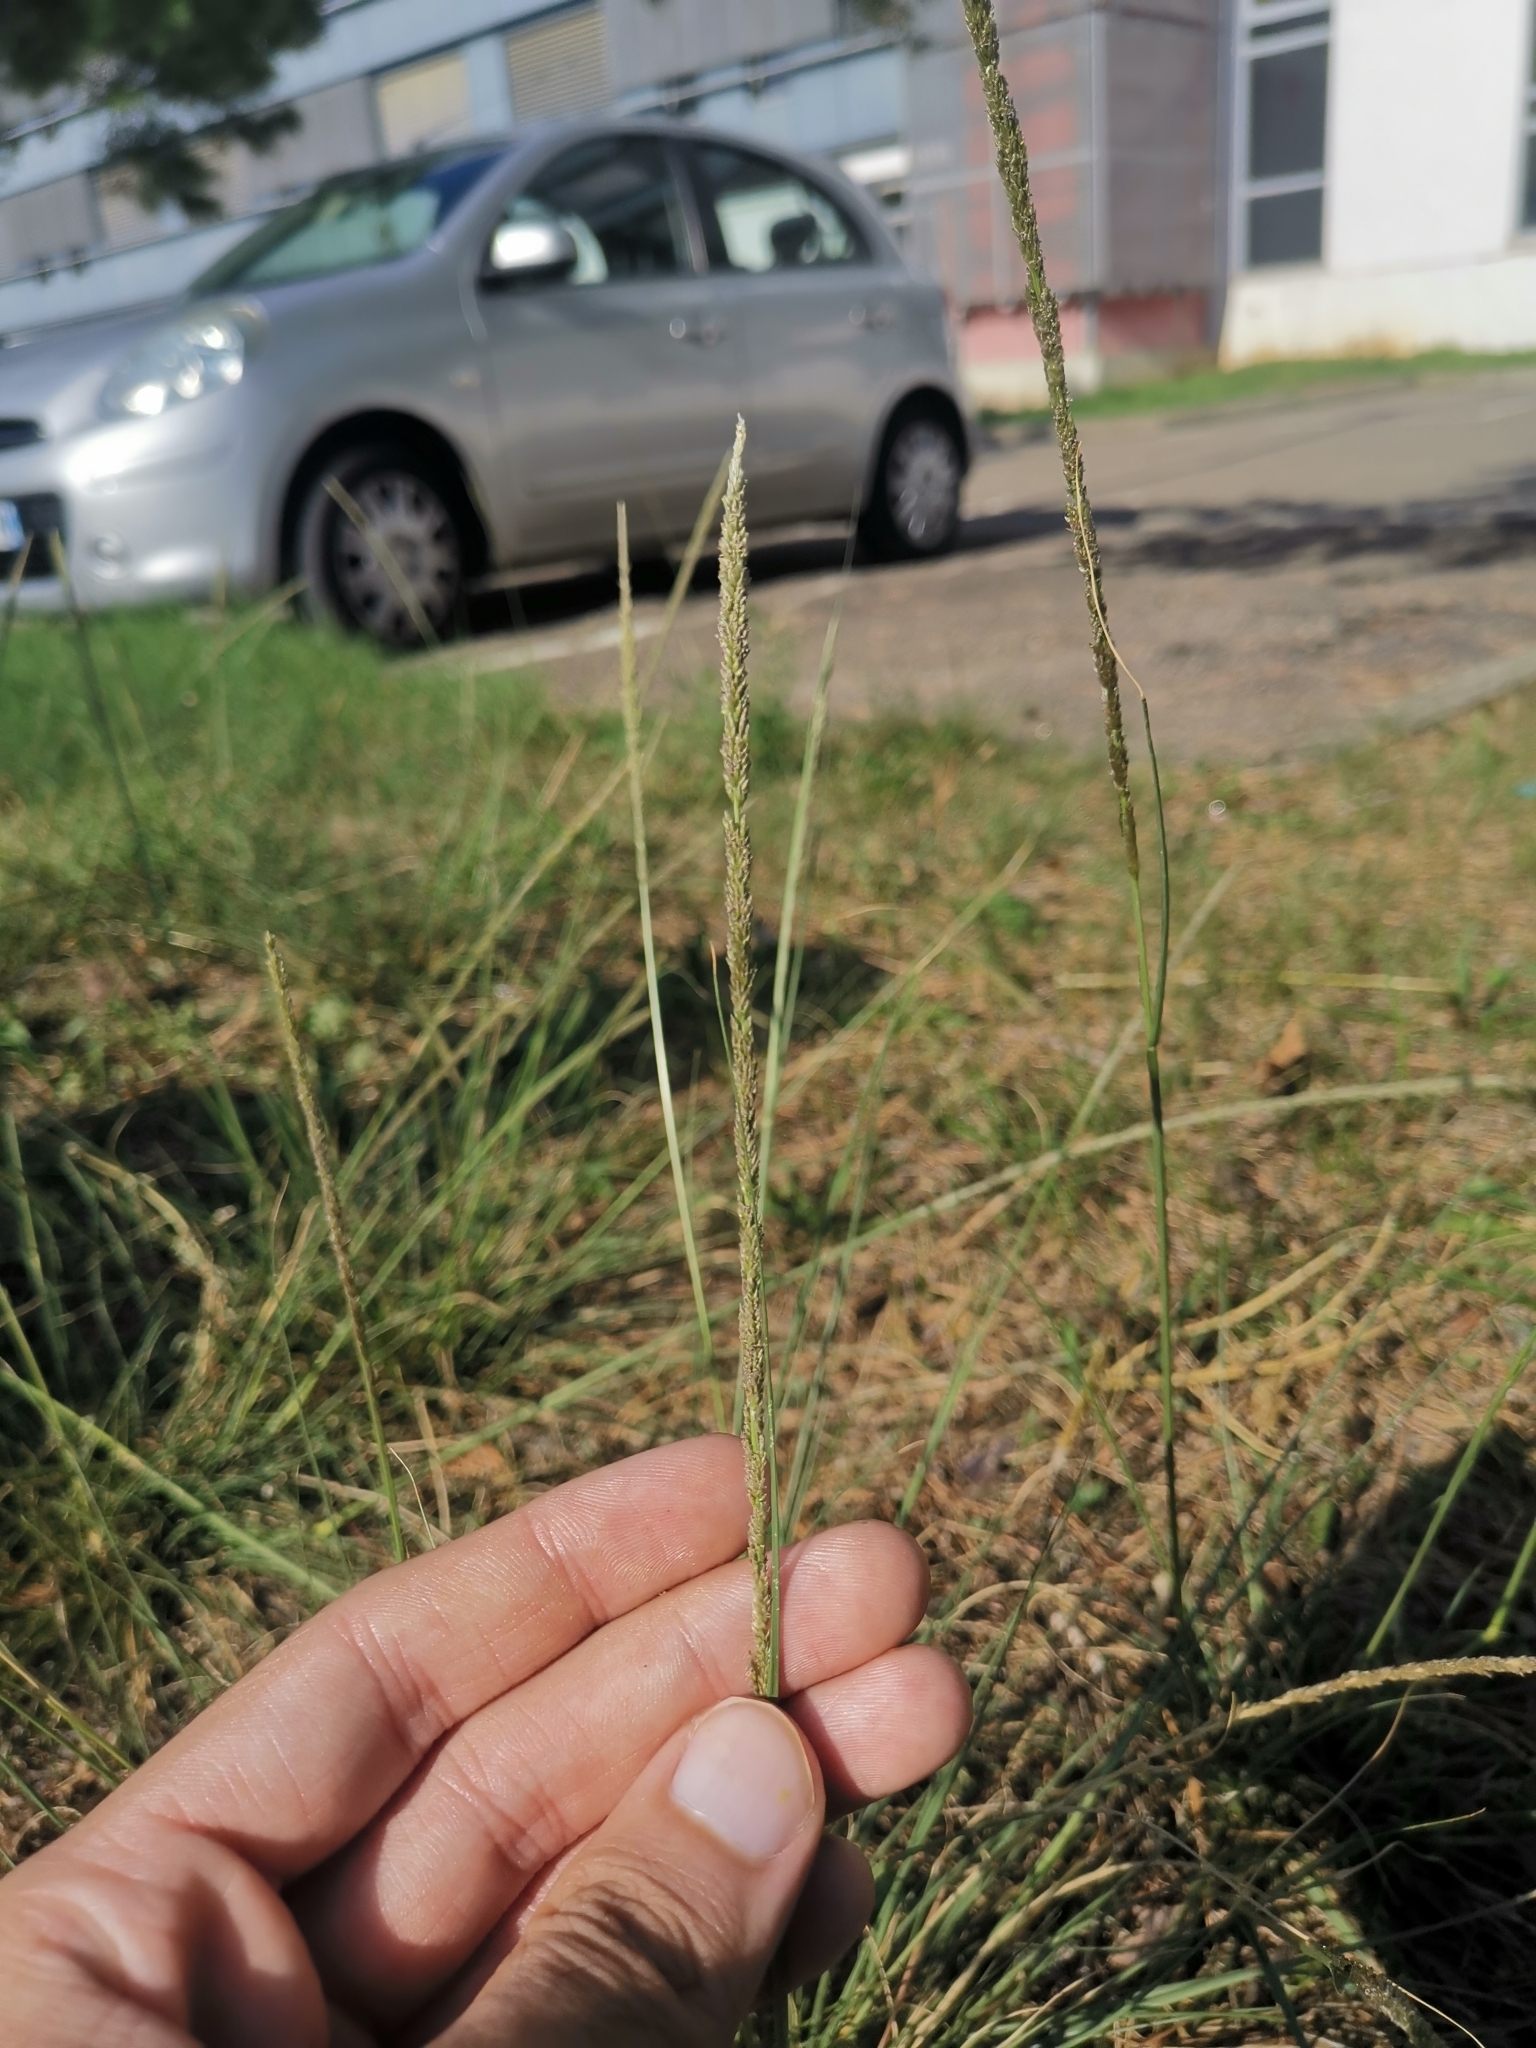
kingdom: Plantae
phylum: Tracheophyta
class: Liliopsida
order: Poales
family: Poaceae
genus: Sporobolus
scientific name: Sporobolus indicus
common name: Smut grass
